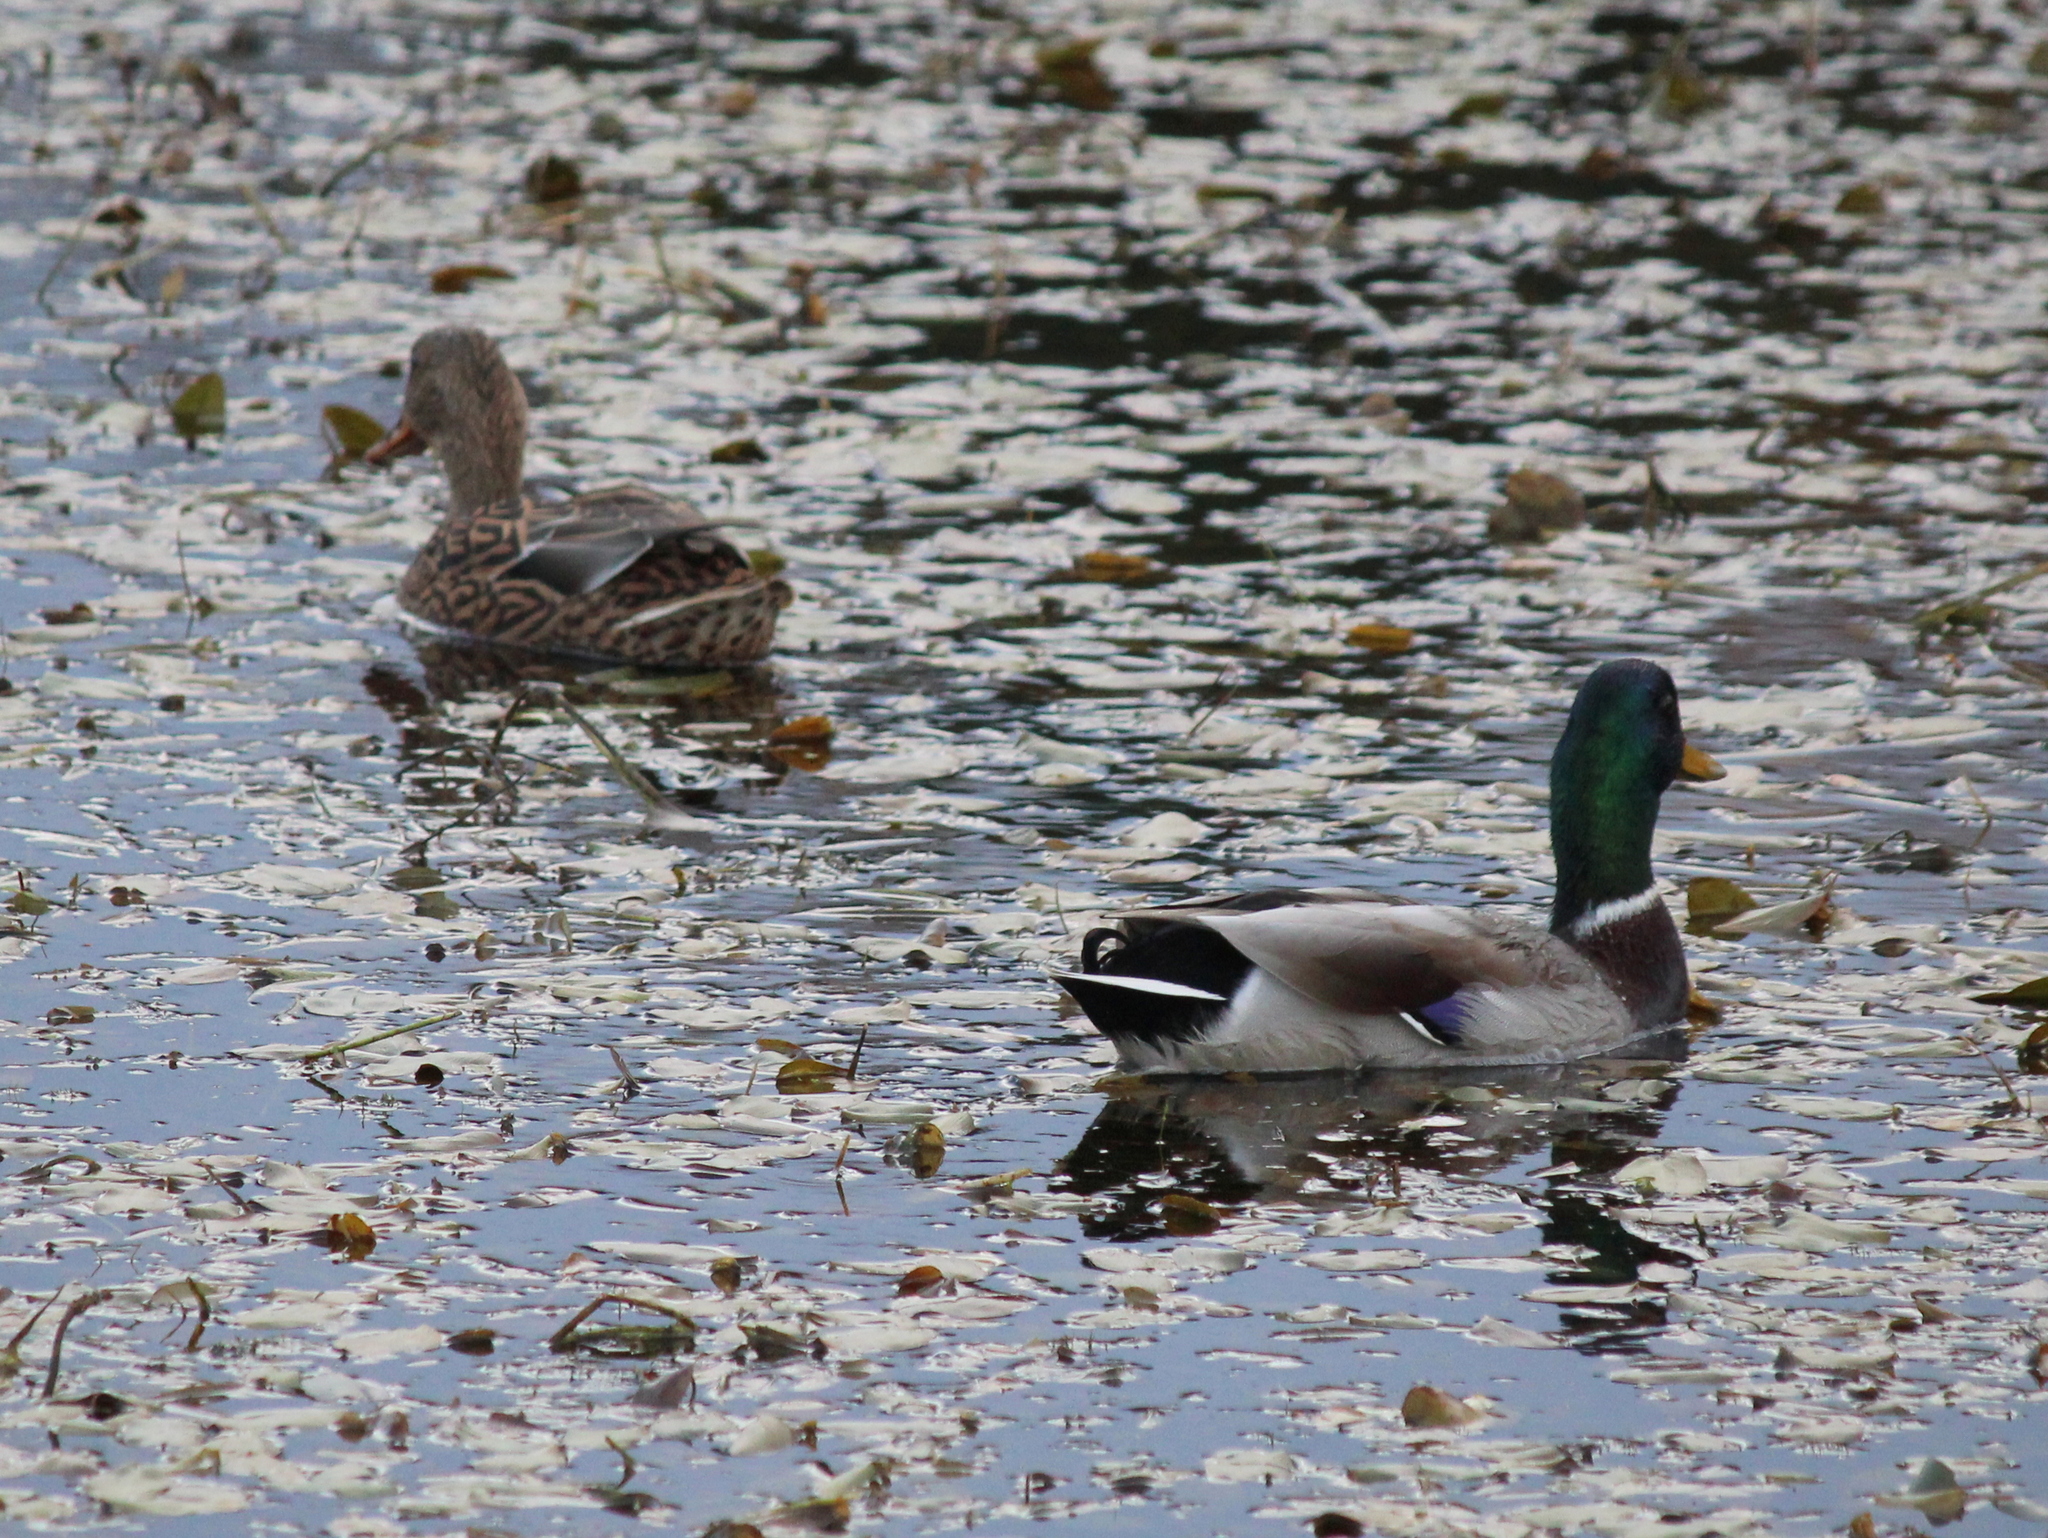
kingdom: Animalia
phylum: Chordata
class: Aves
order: Anseriformes
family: Anatidae
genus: Anas
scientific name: Anas platyrhynchos
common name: Mallard
